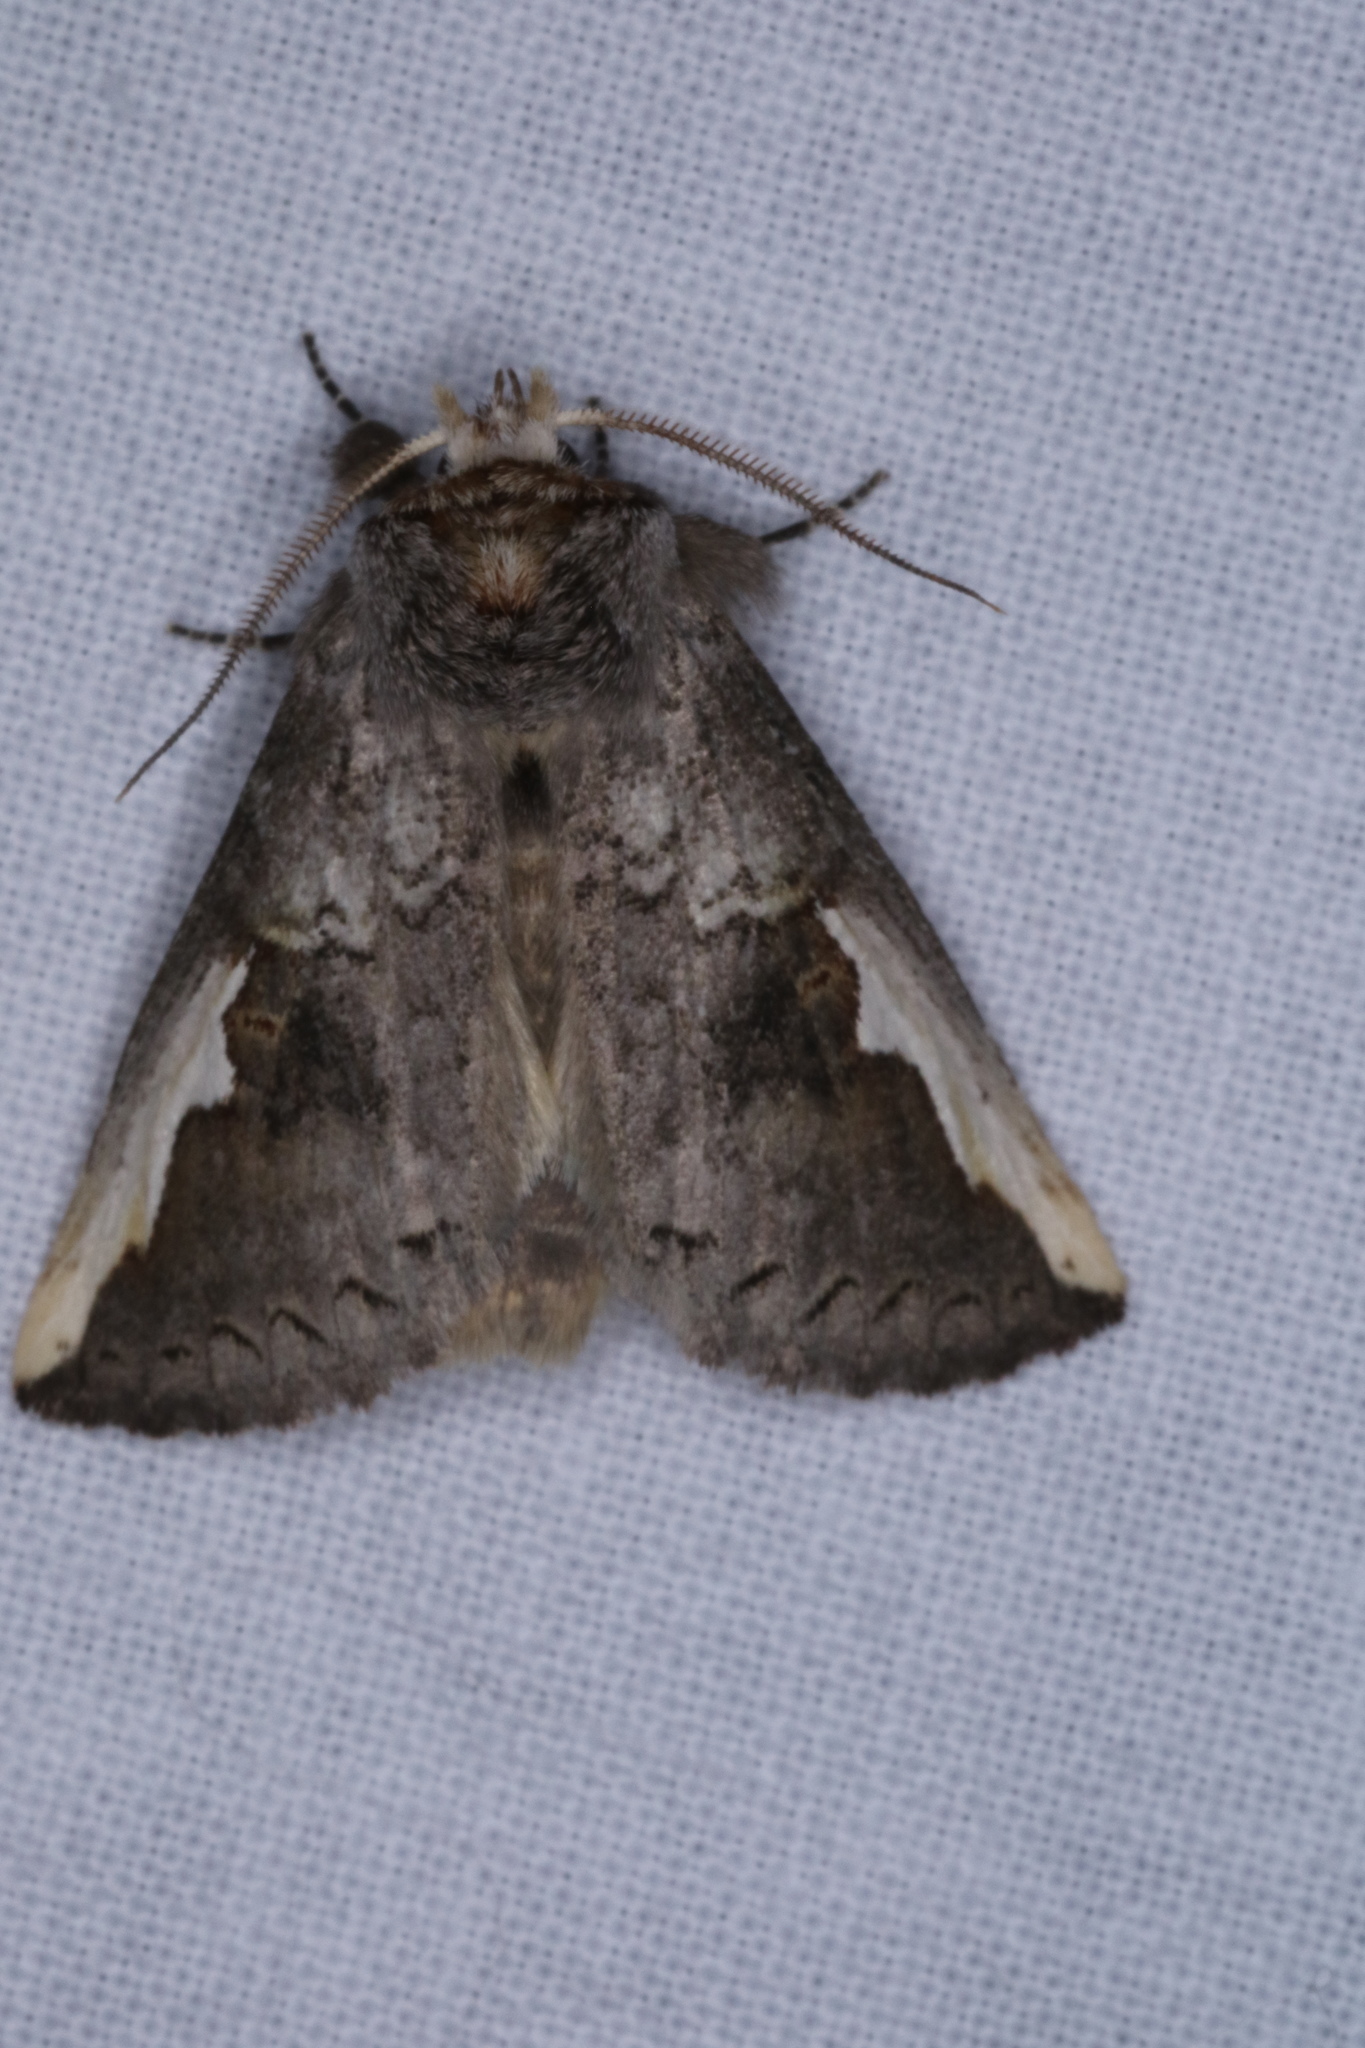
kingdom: Animalia
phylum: Arthropoda
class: Insecta
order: Lepidoptera
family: Notodontidae
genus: Symmerista
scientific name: Symmerista
